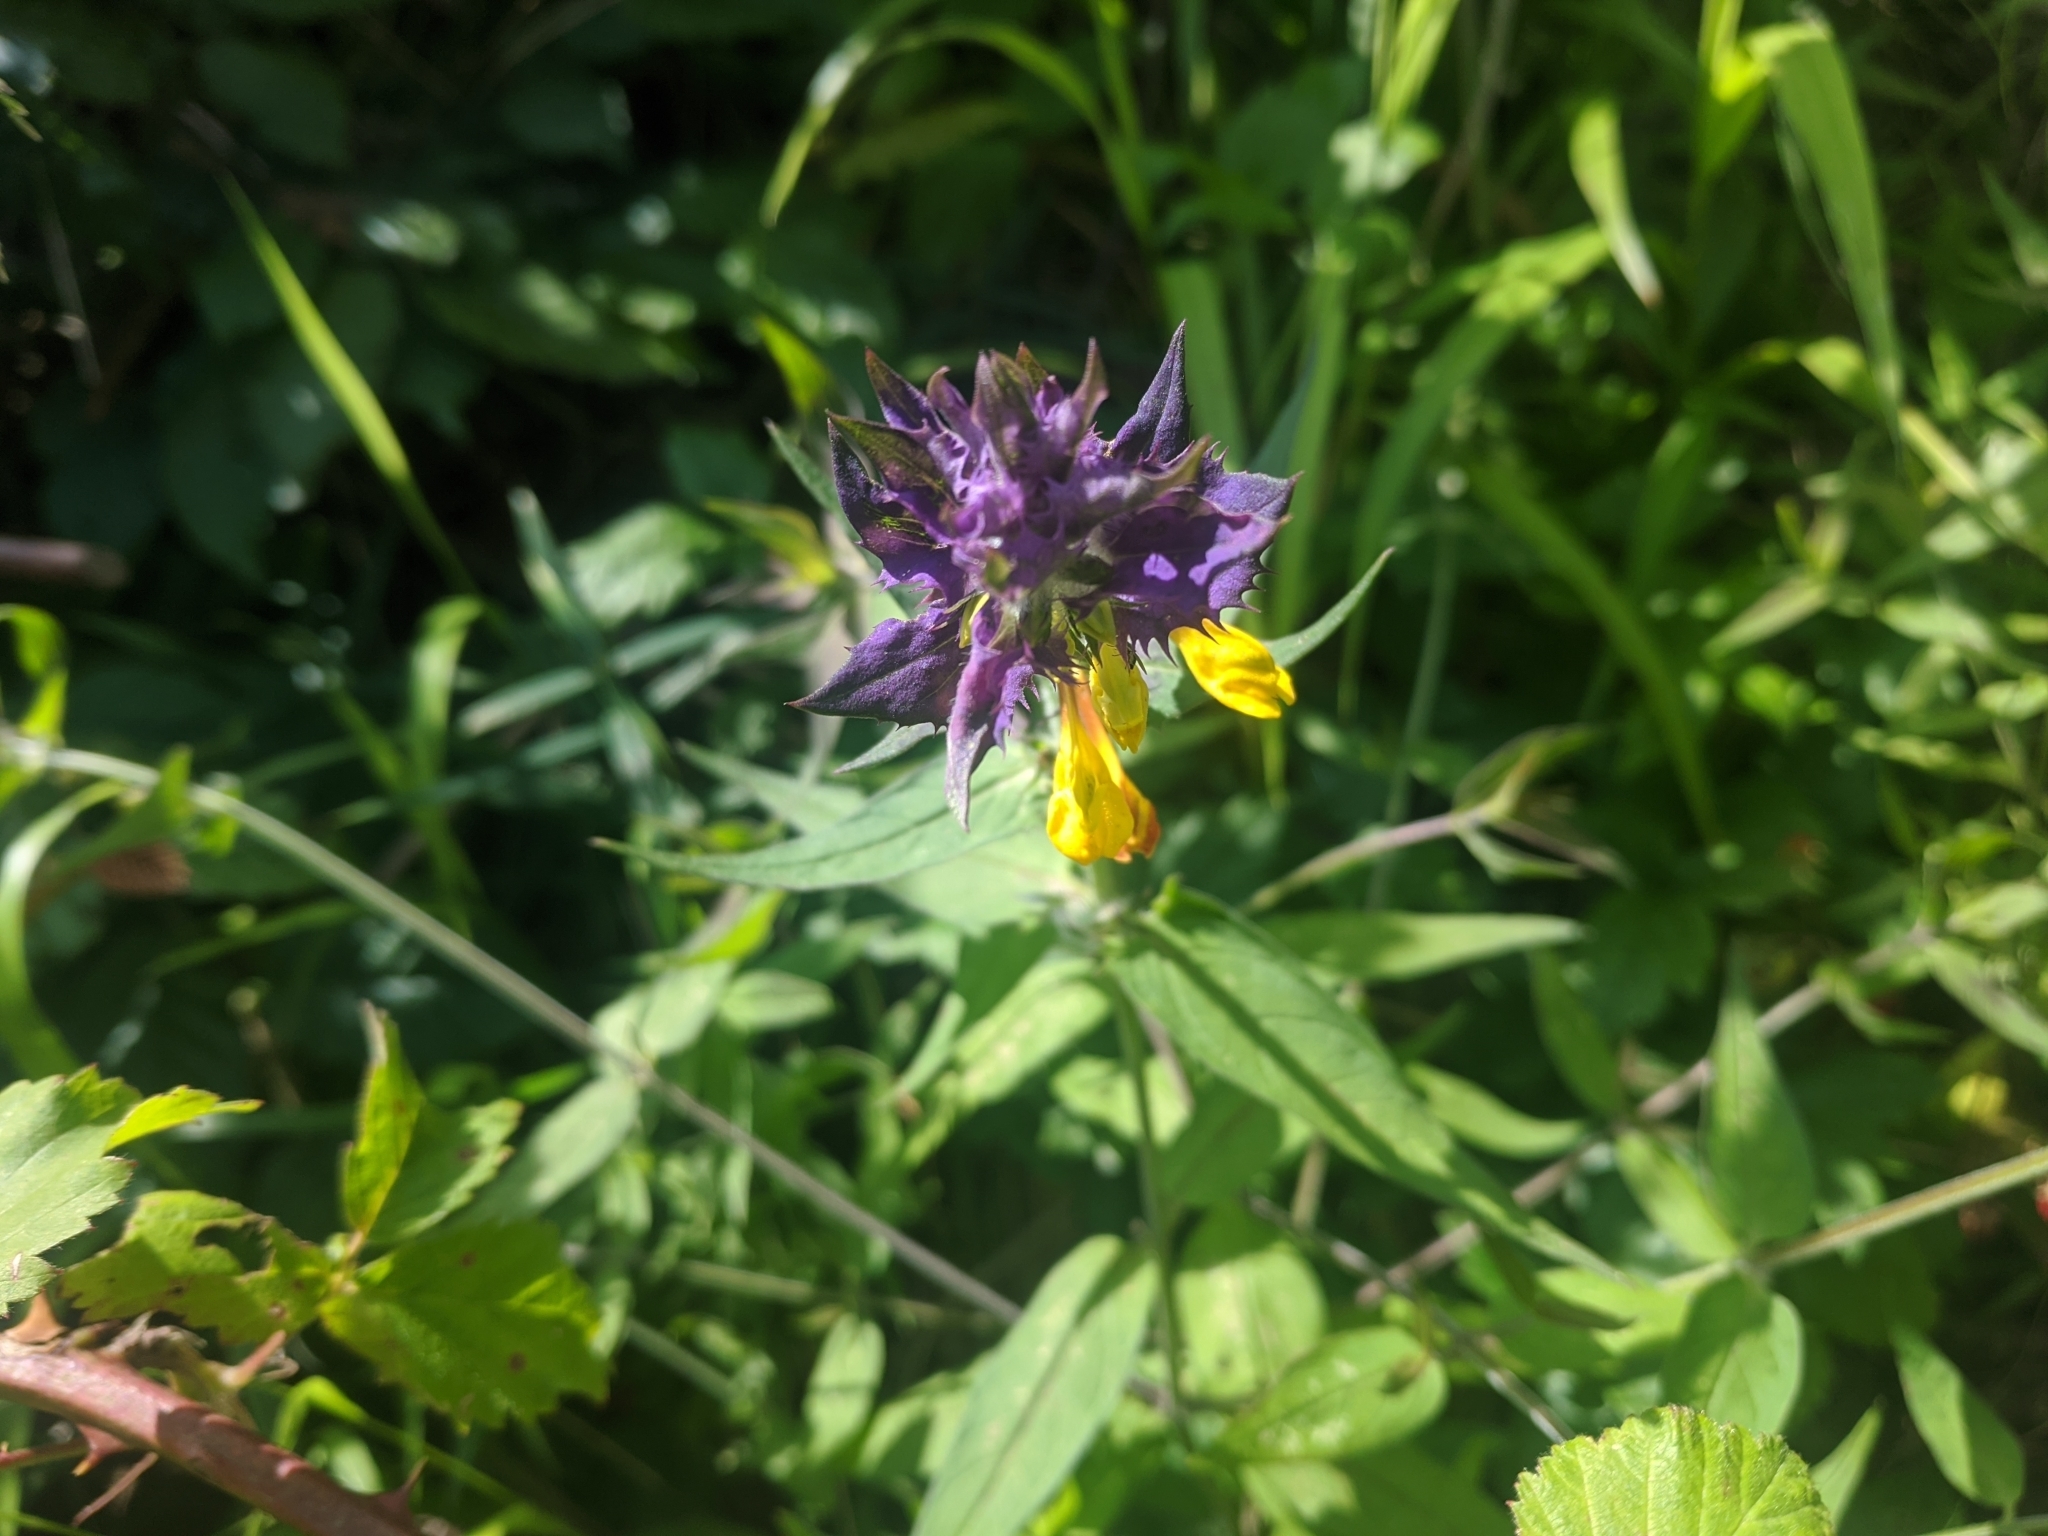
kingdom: Plantae
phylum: Tracheophyta
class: Magnoliopsida
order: Lamiales
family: Orobanchaceae
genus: Melampyrum
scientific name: Melampyrum nemorosum
